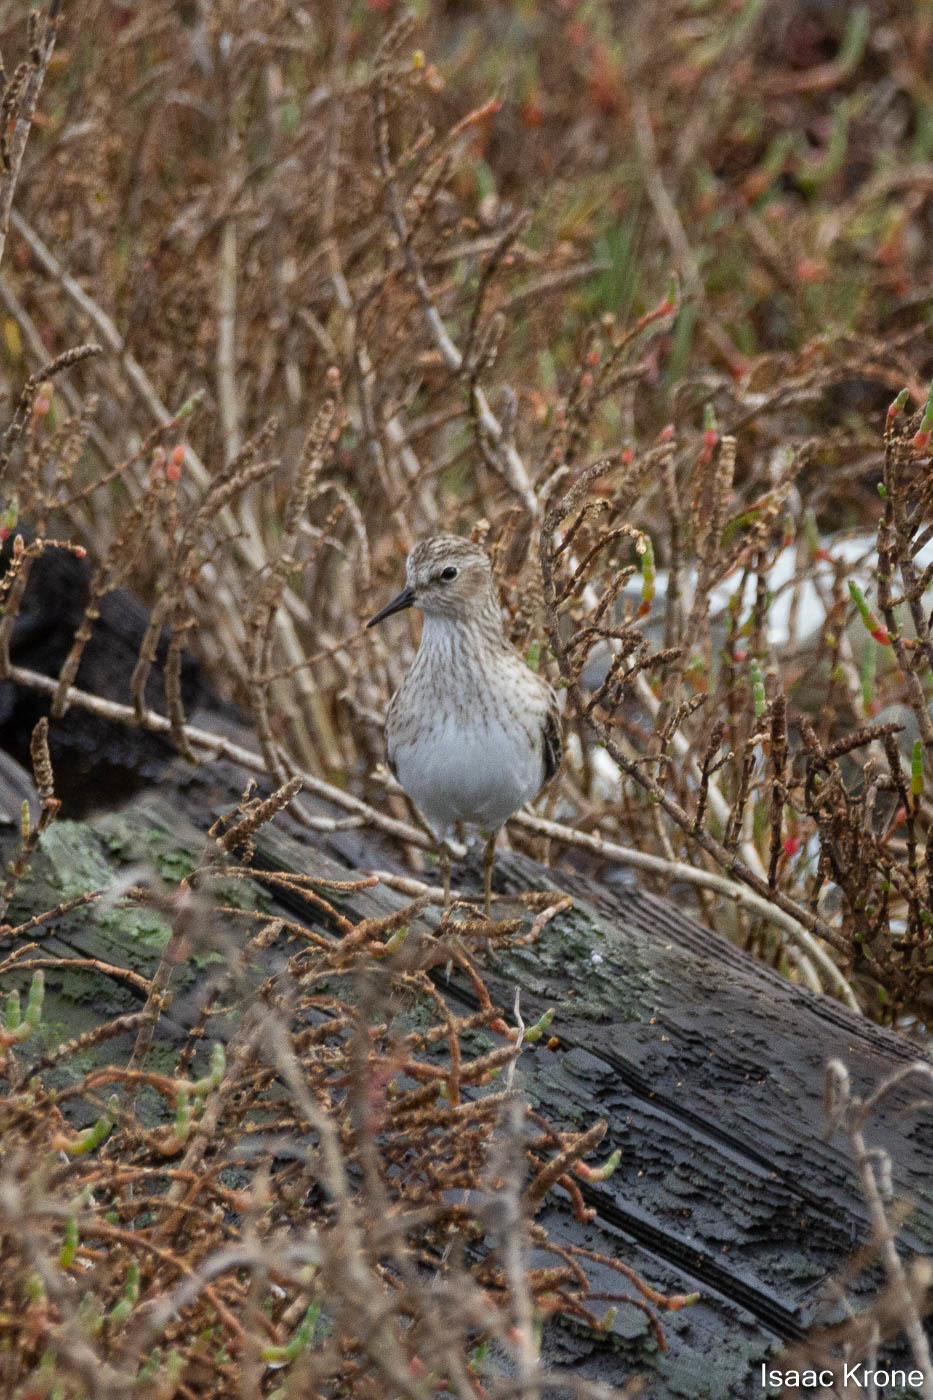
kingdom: Animalia
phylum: Chordata
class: Aves
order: Charadriiformes
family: Scolopacidae
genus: Calidris
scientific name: Calidris minutilla
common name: Least sandpiper
